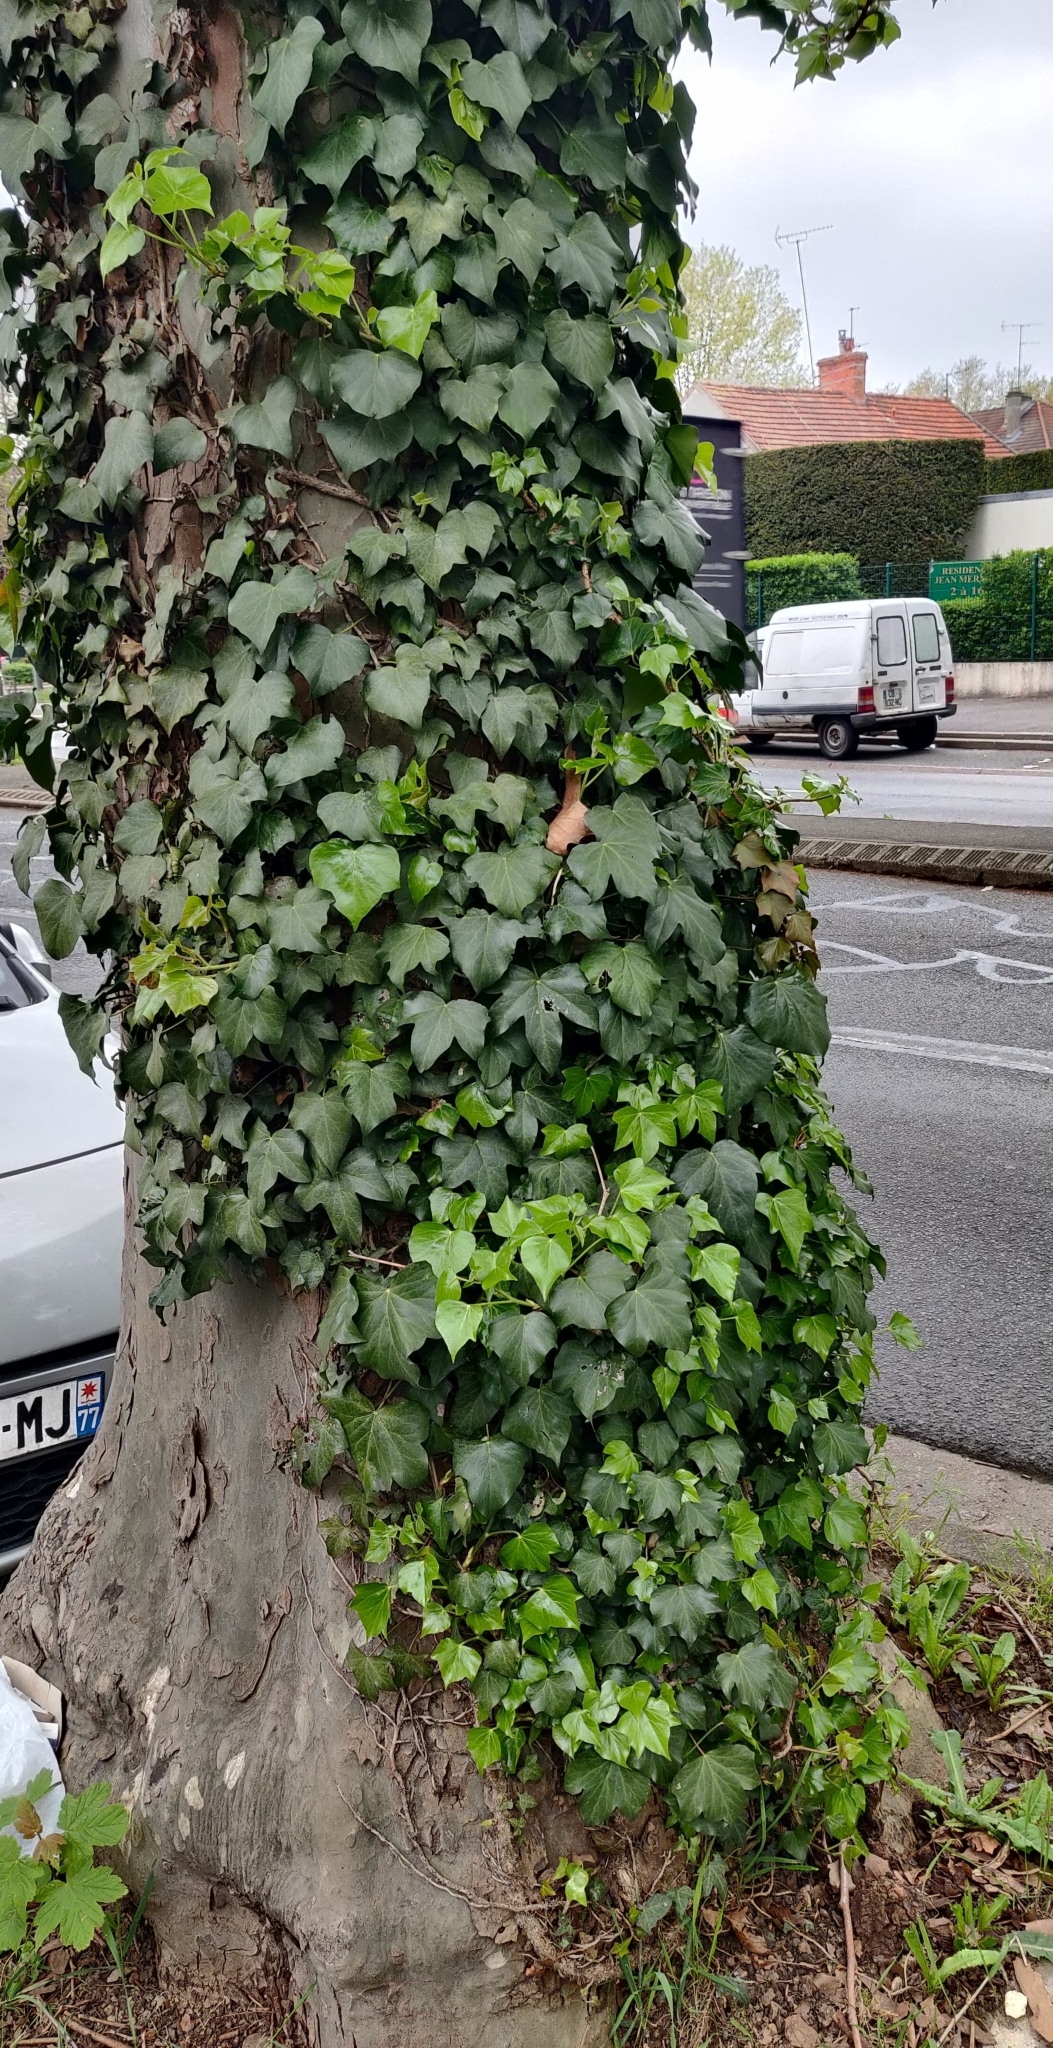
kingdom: Plantae
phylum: Tracheophyta
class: Magnoliopsida
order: Apiales
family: Araliaceae
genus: Hedera
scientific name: Hedera helix
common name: Ivy
